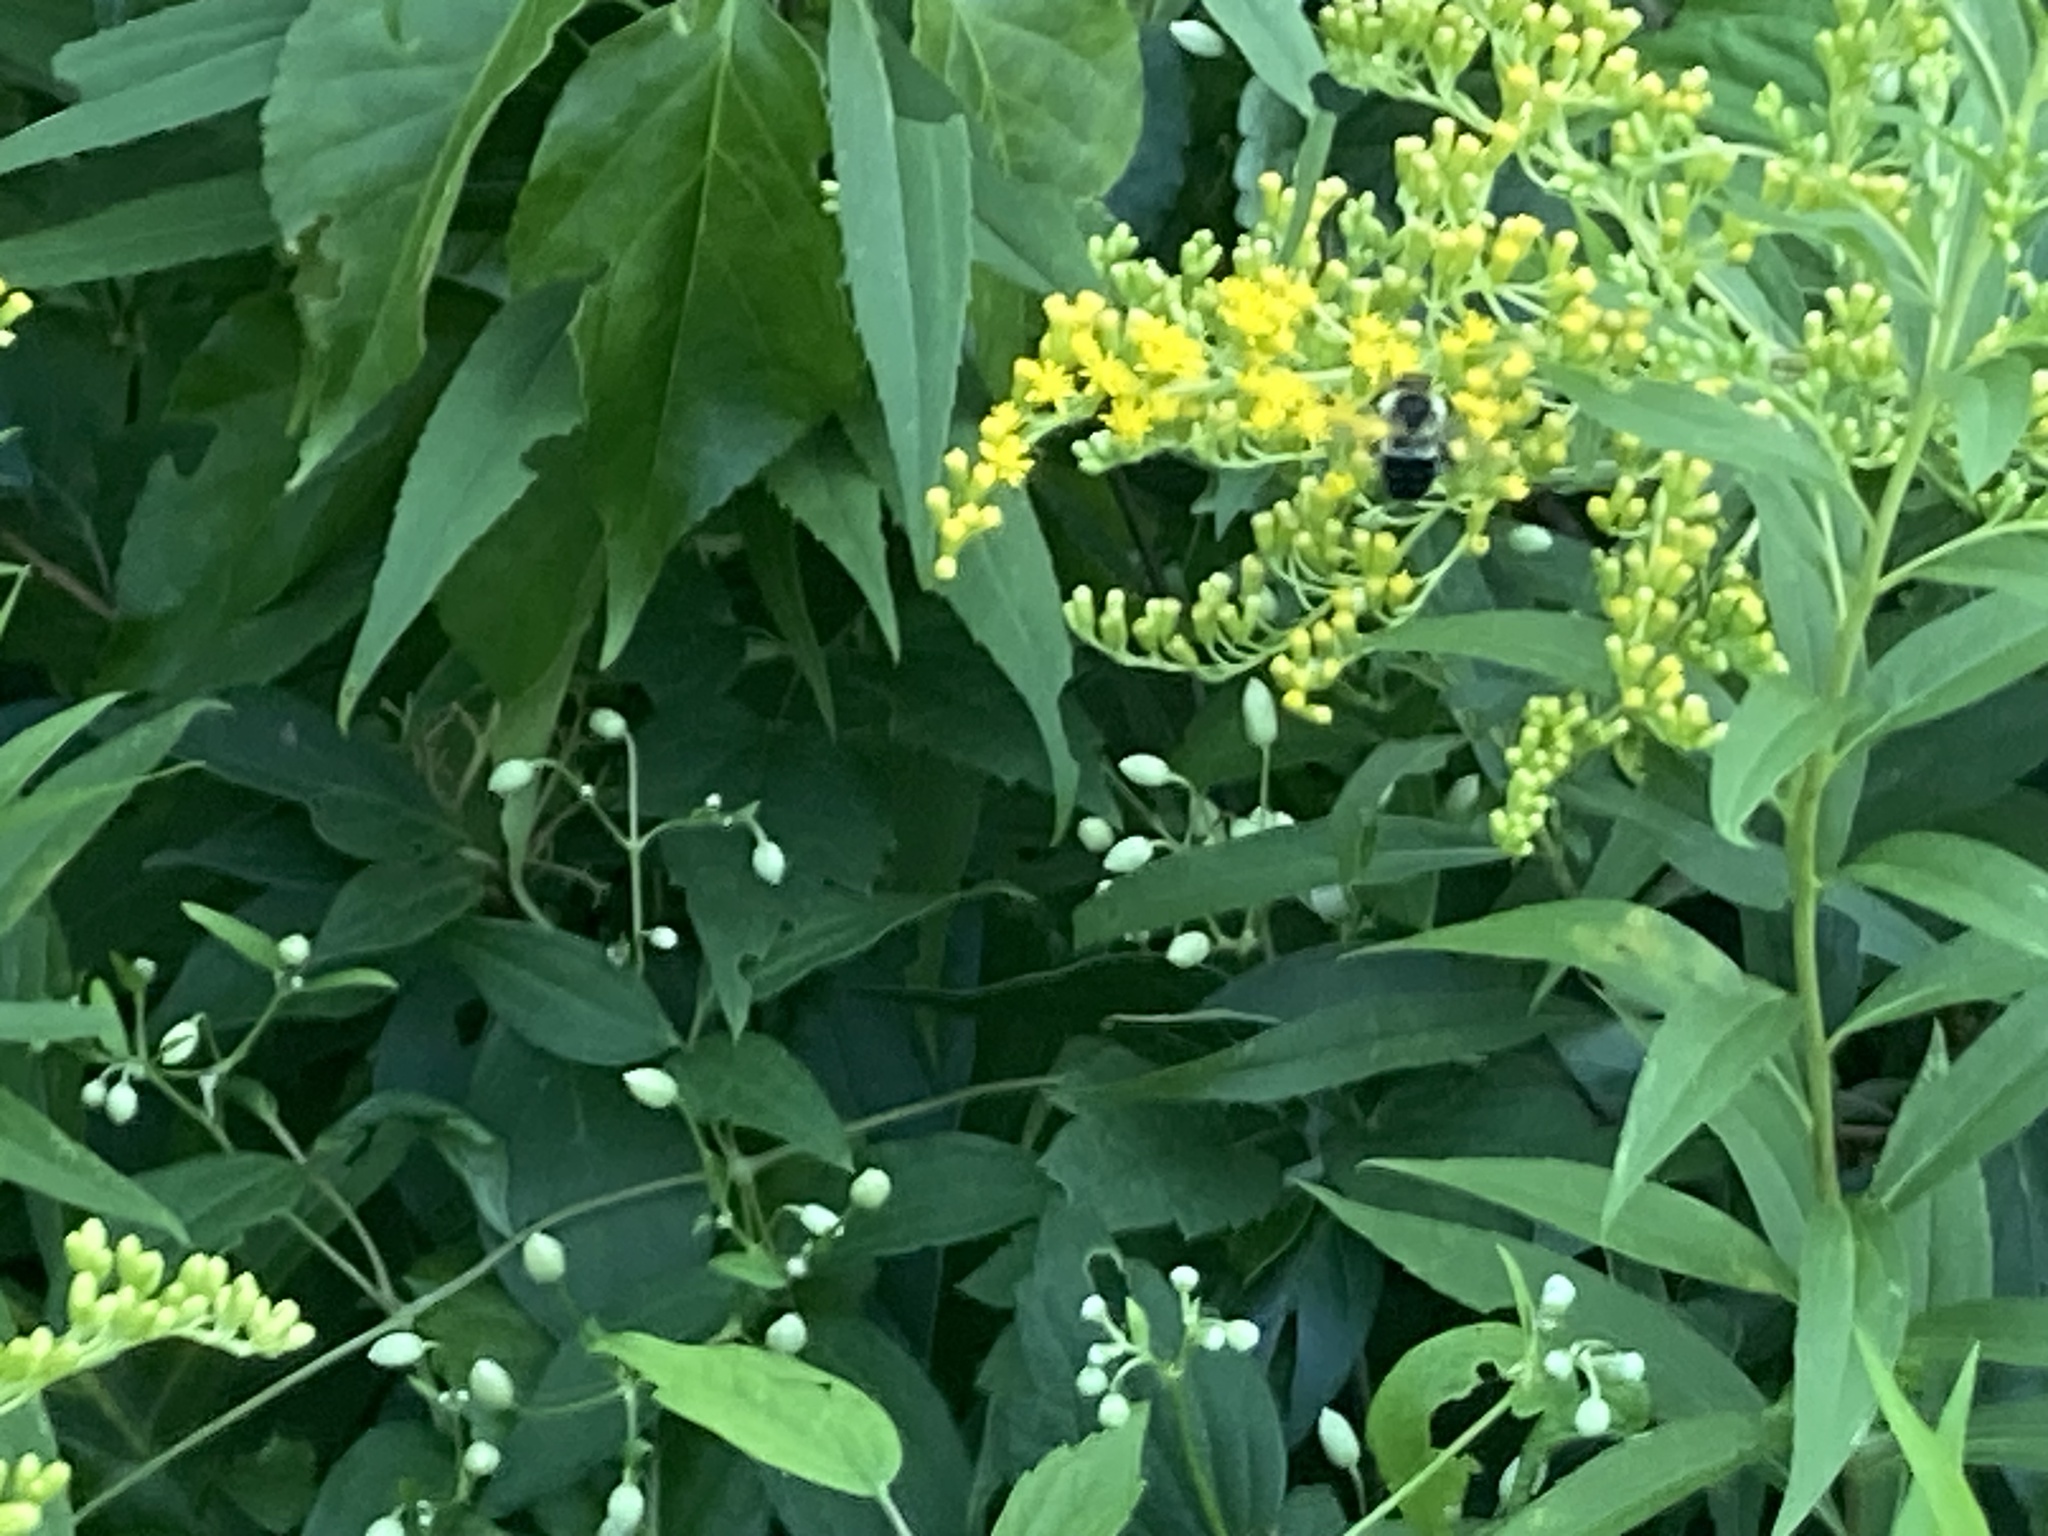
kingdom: Animalia
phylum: Arthropoda
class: Insecta
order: Hymenoptera
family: Apidae
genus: Bombus
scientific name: Bombus impatiens
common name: Common eastern bumble bee
